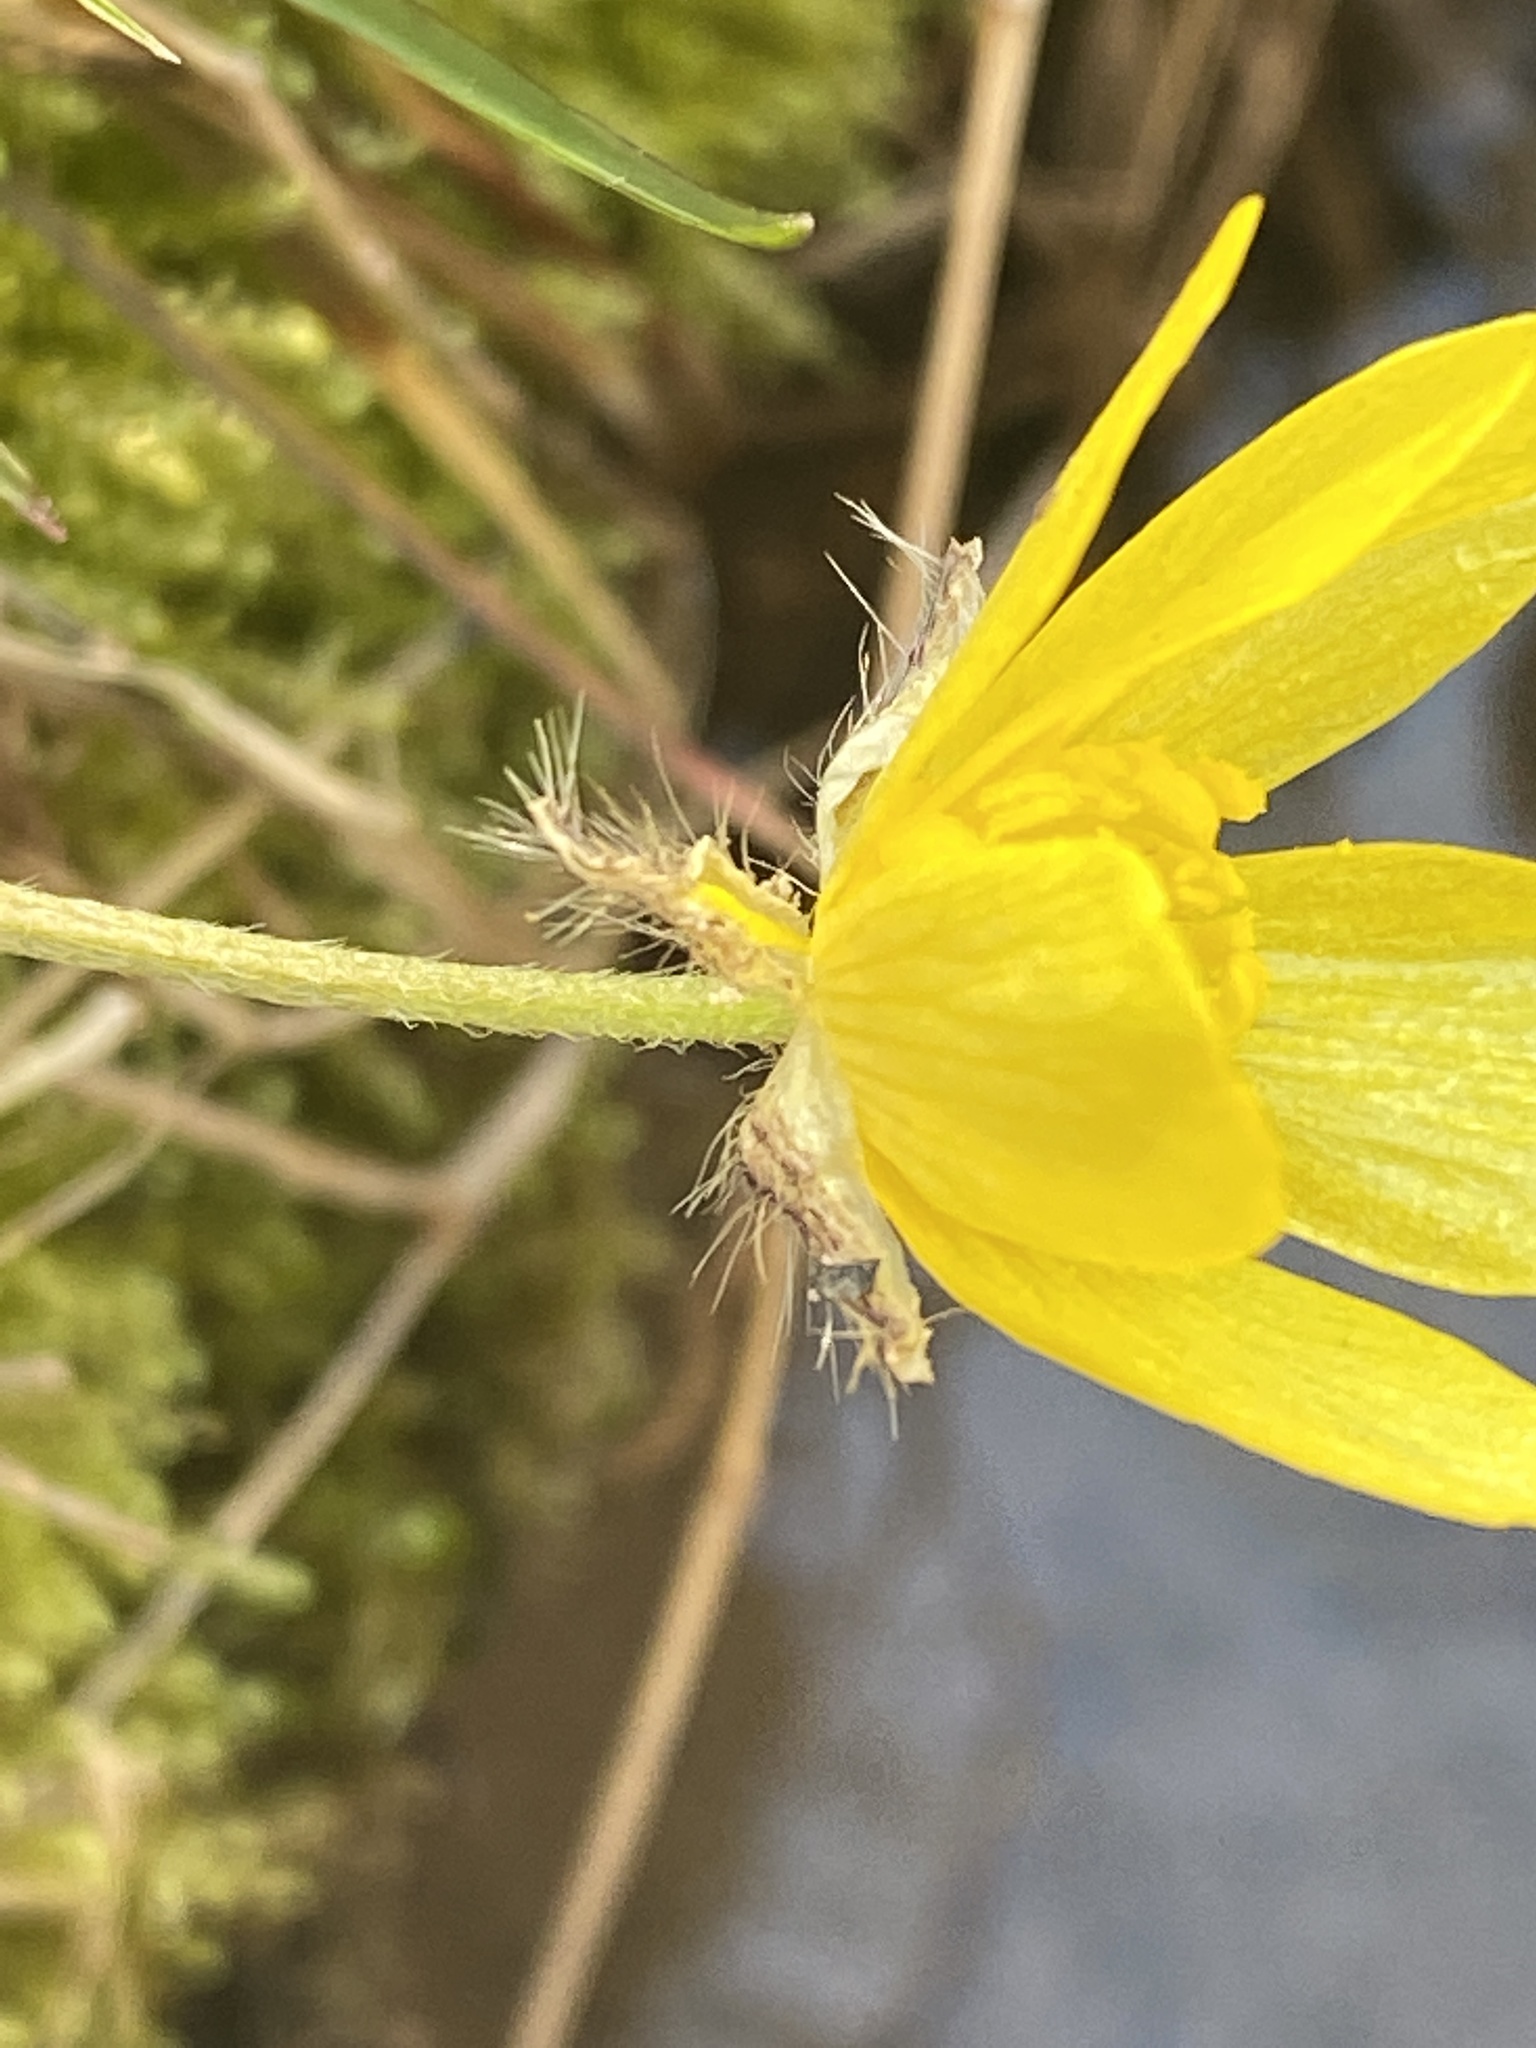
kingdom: Plantae
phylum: Tracheophyta
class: Magnoliopsida
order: Ranunculales
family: Ranunculaceae
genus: Ranunculus
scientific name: Ranunculus hispidus
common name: Bristly buttercup
